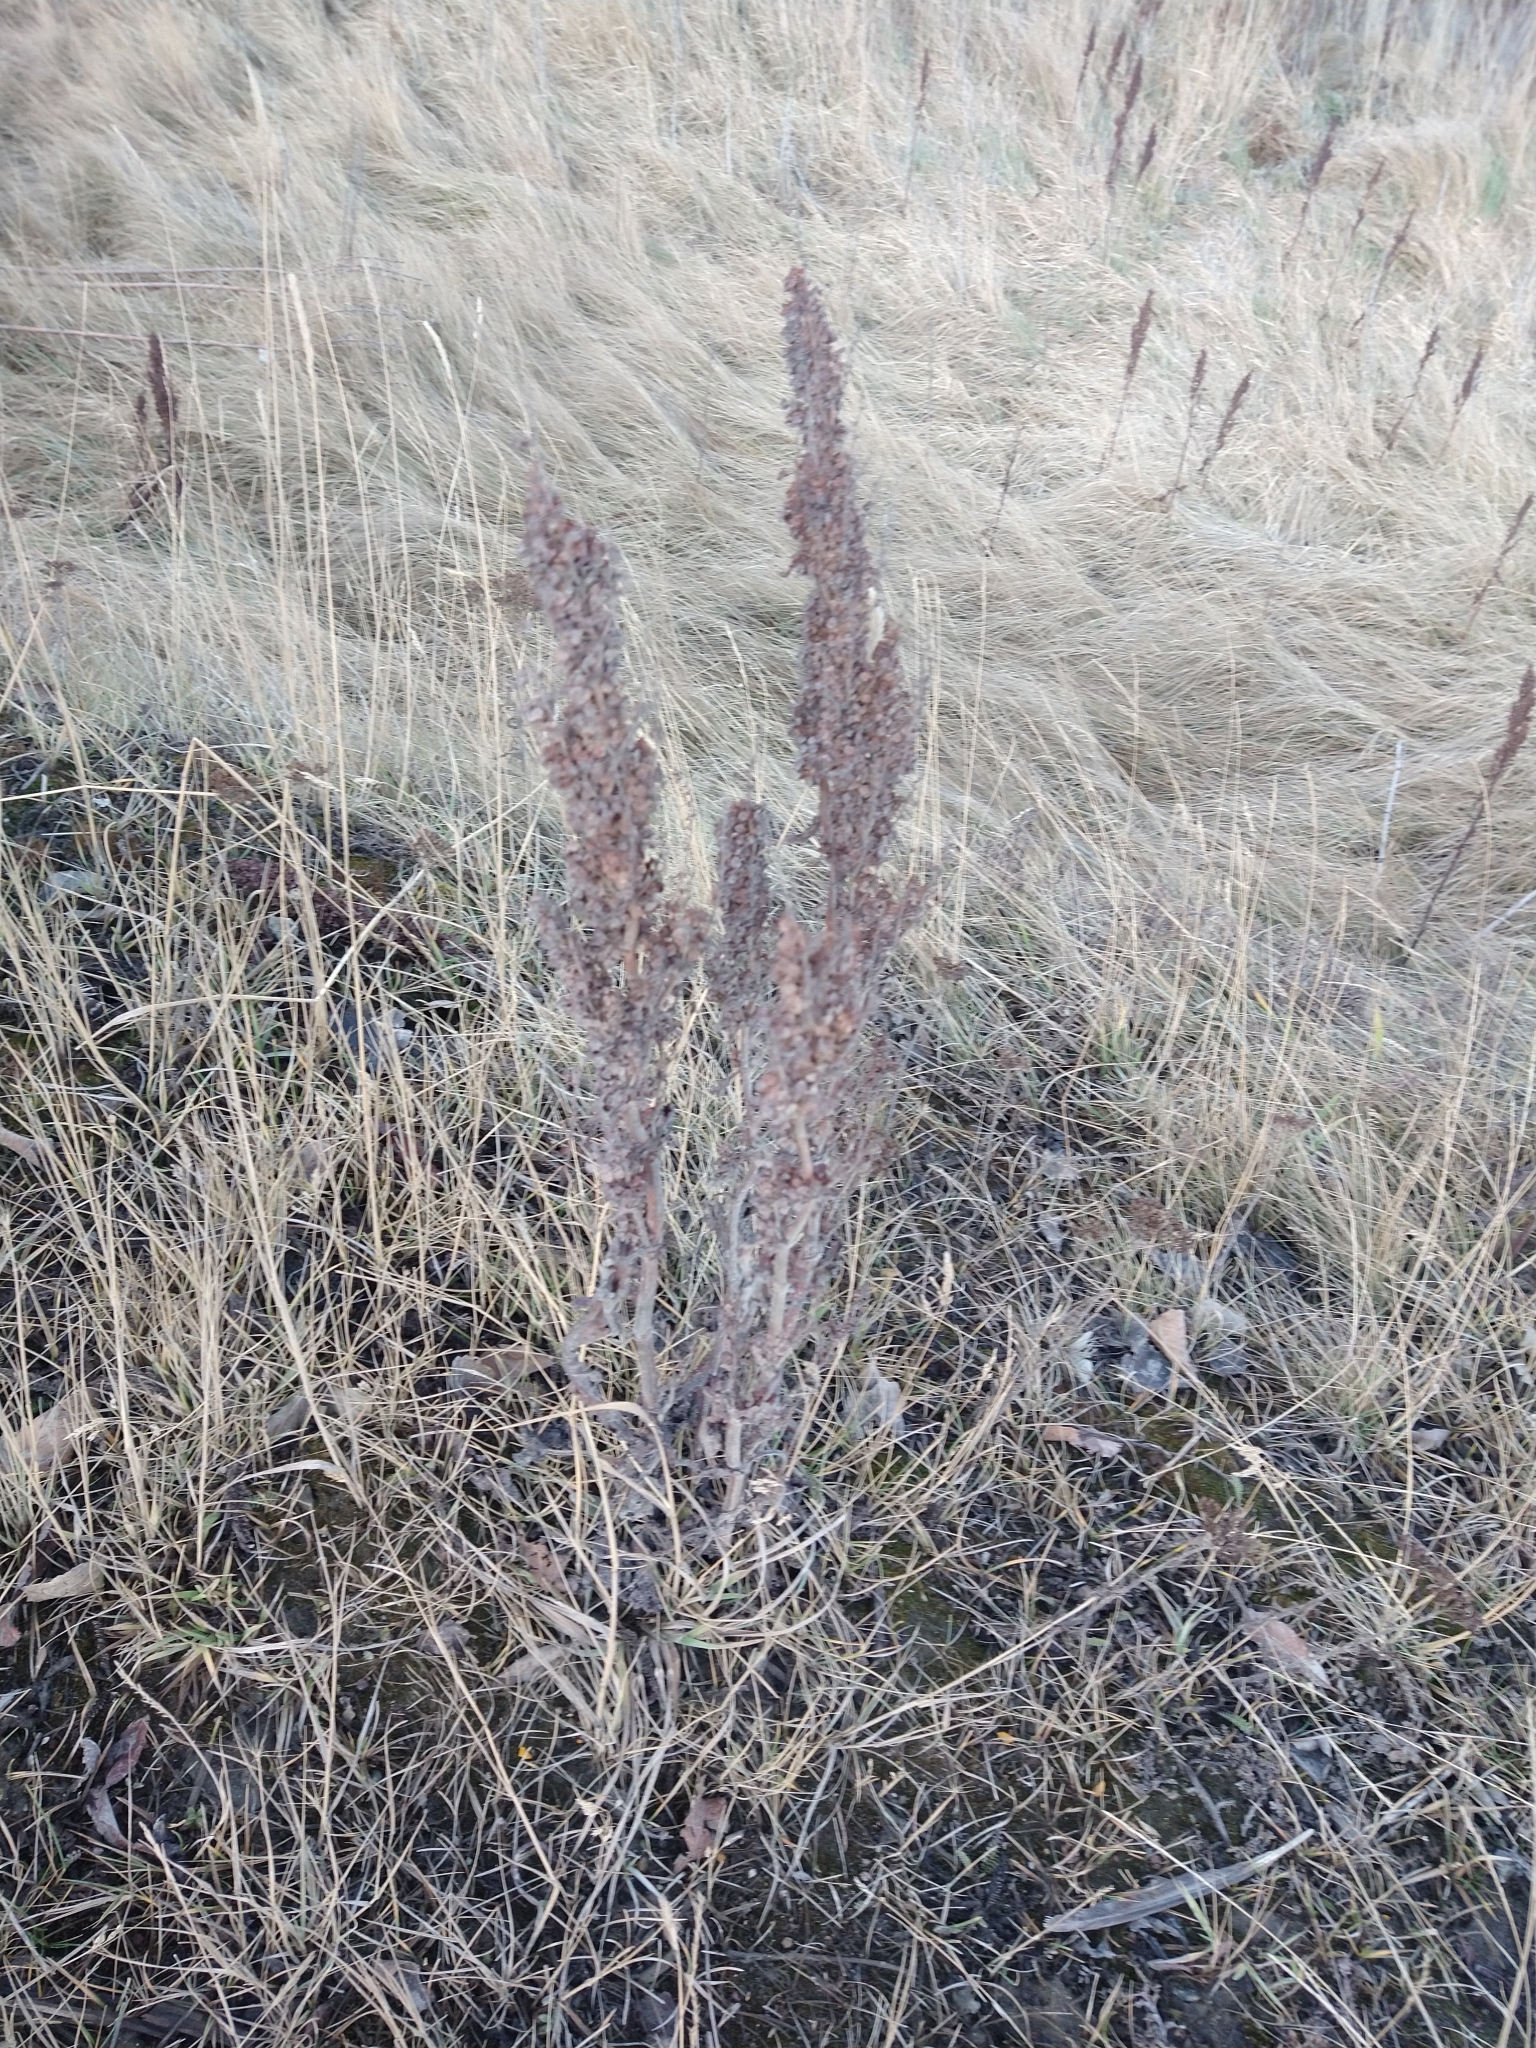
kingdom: Plantae
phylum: Tracheophyta
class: Magnoliopsida
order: Caryophyllales
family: Polygonaceae
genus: Rumex
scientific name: Rumex crispus
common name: Curled dock
